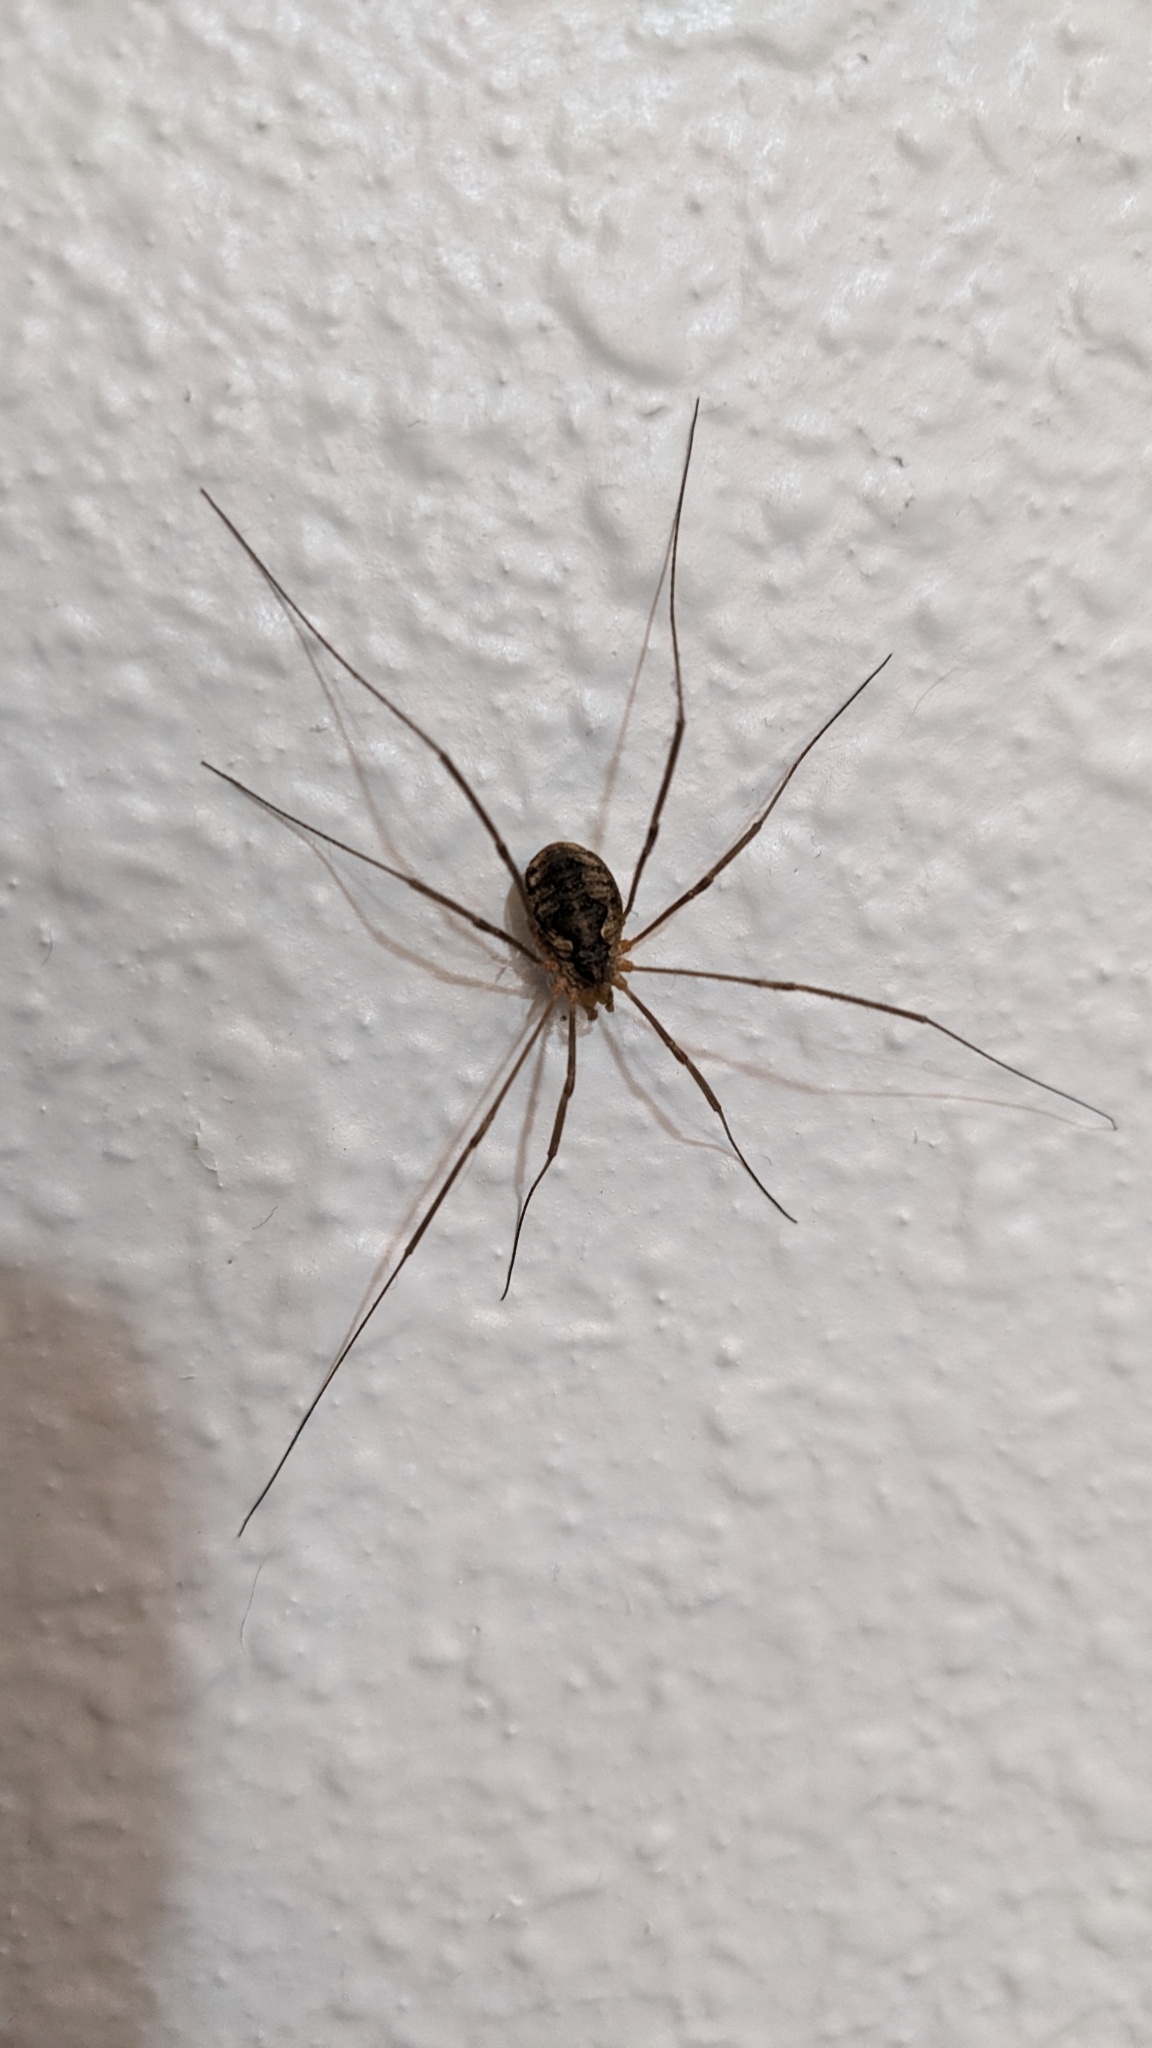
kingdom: Animalia
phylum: Arthropoda
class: Arachnida
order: Opiliones
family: Phalangiidae
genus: Phalangium
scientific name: Phalangium opilio
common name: Daddy longleg
